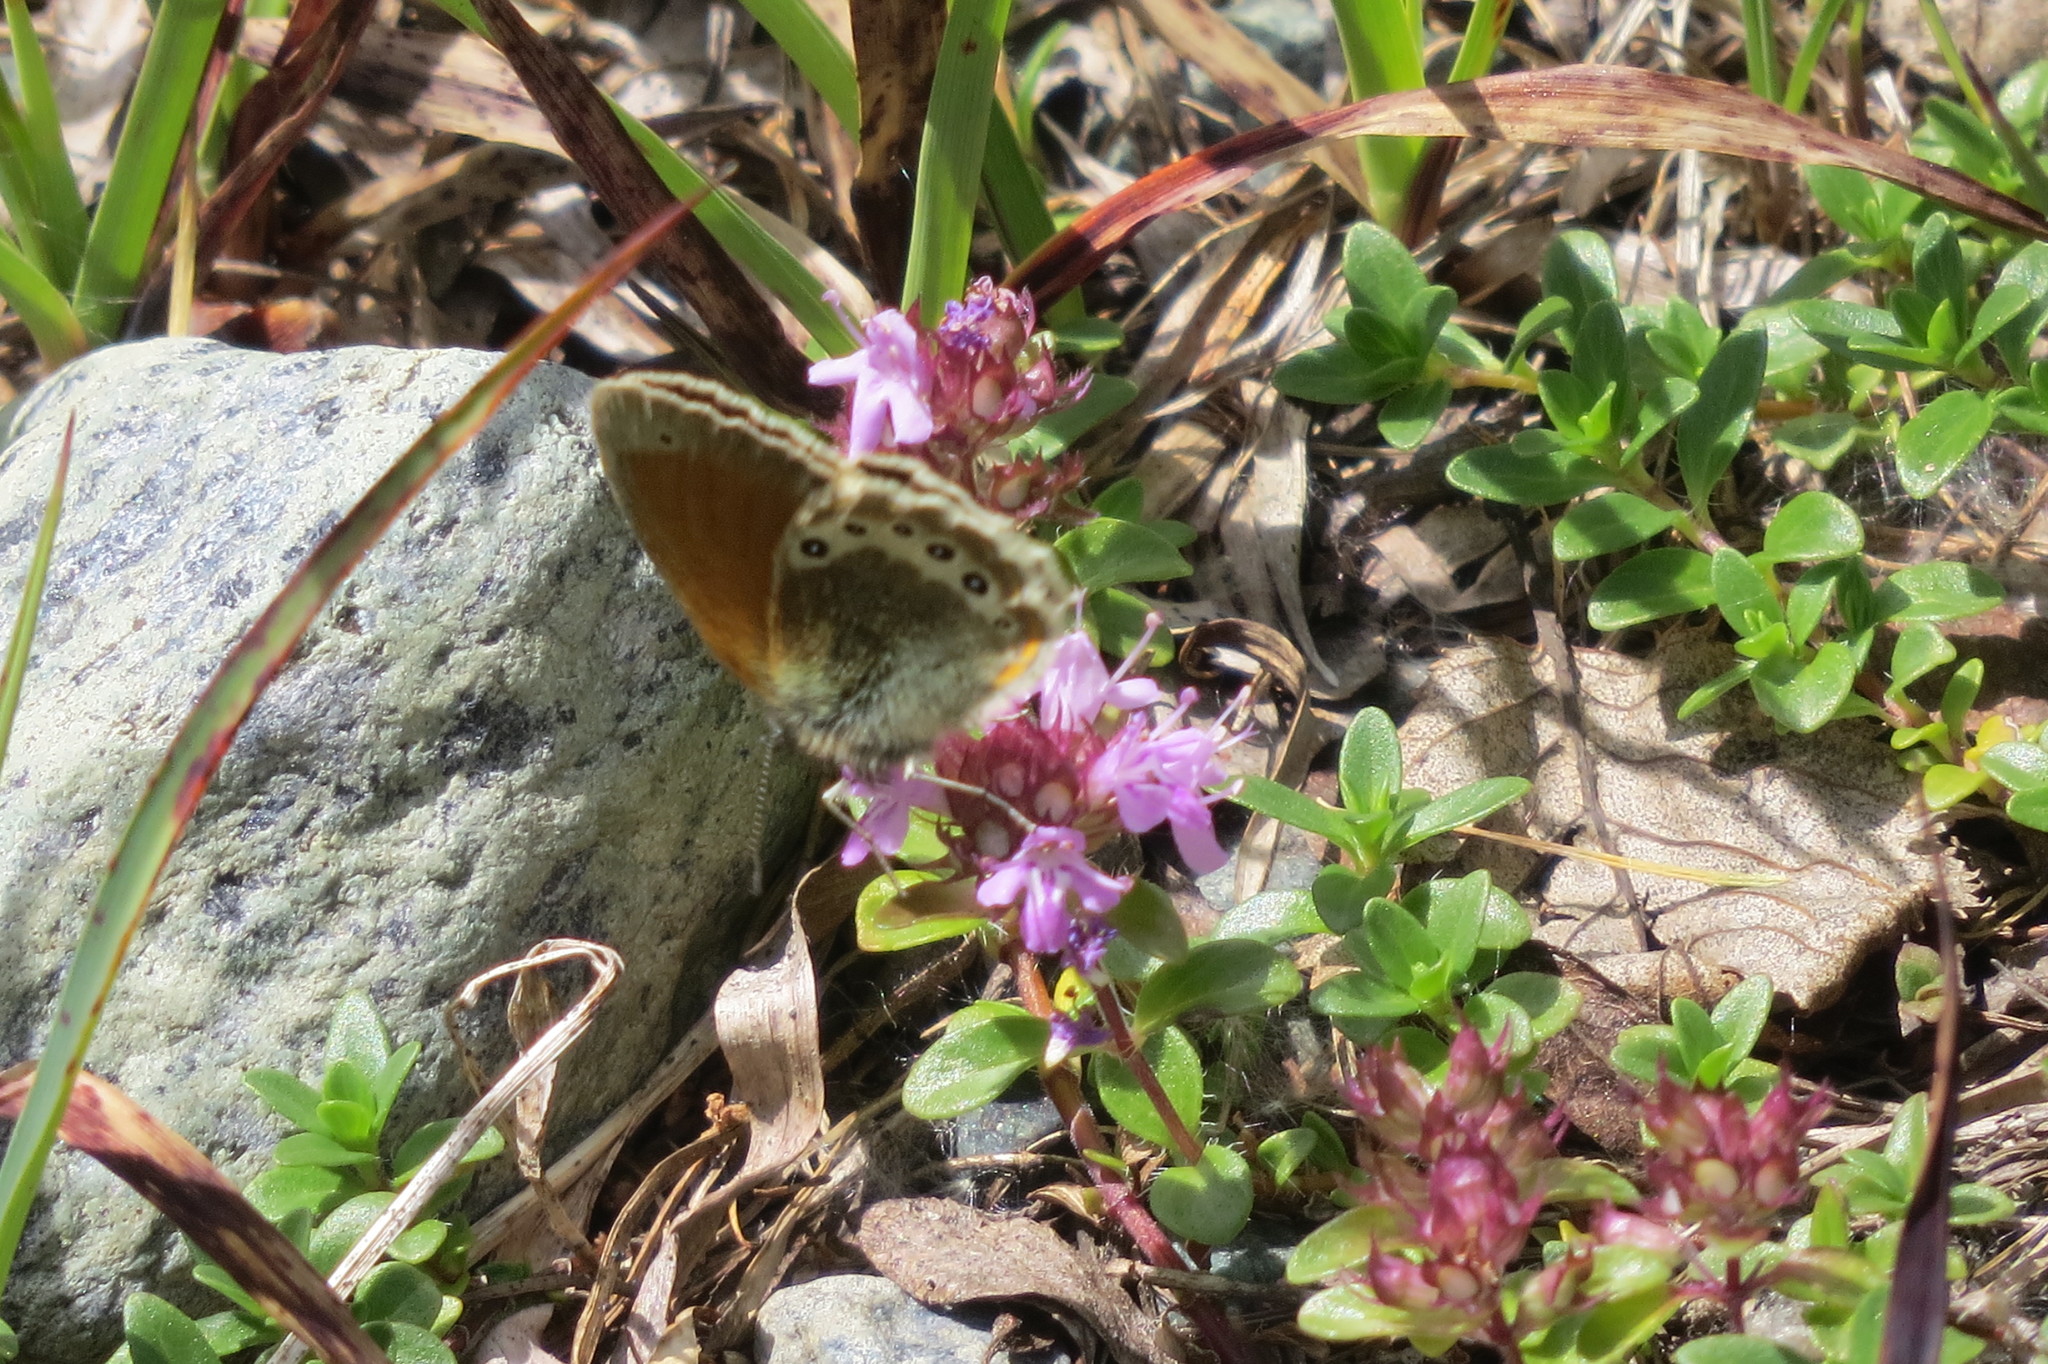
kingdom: Animalia
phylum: Arthropoda
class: Insecta
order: Lepidoptera
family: Nymphalidae
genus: Coenonympha
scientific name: Coenonympha
